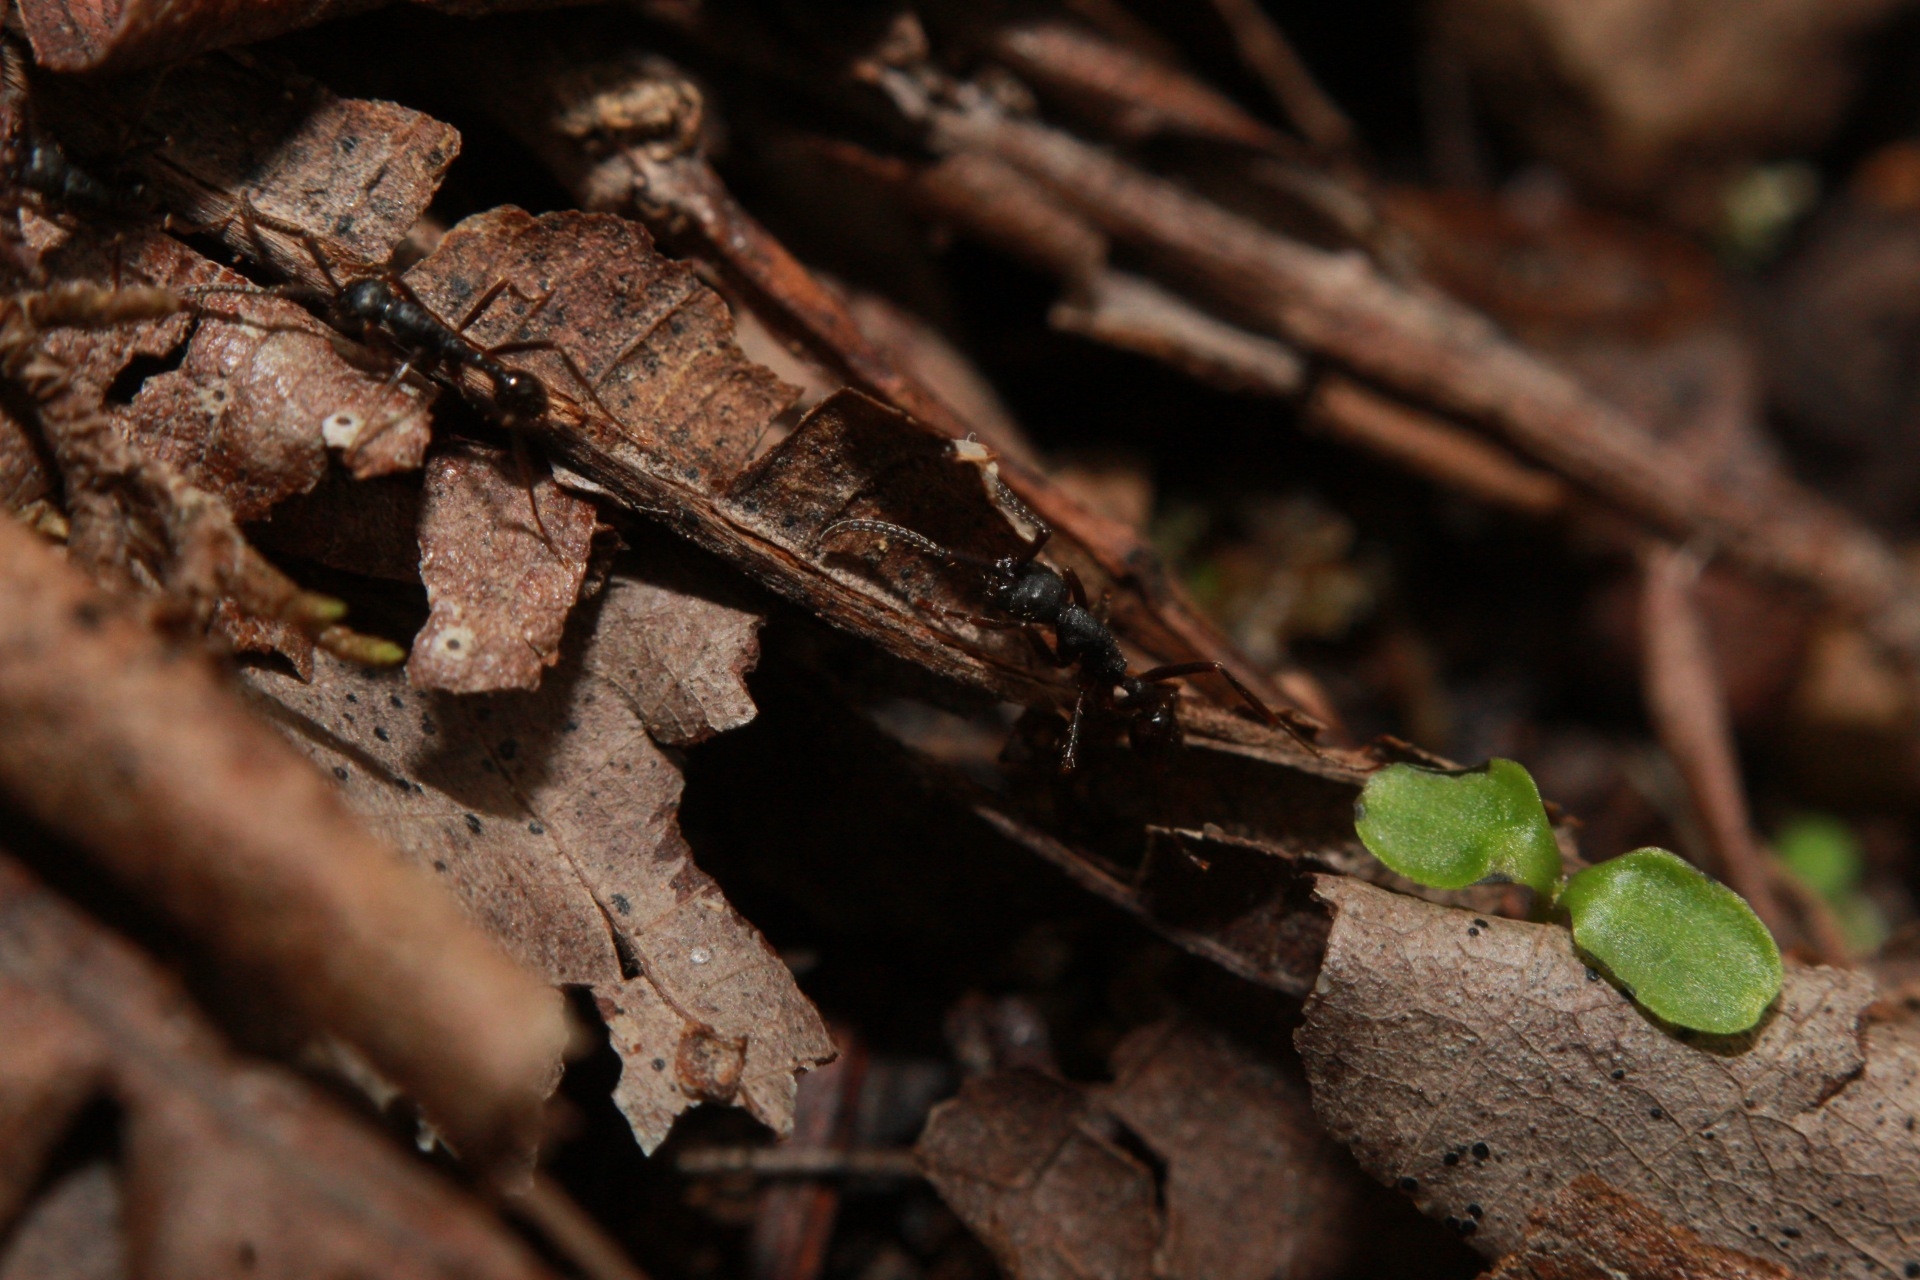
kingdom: Animalia
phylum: Arthropoda
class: Insecta
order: Hymenoptera
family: Formicidae
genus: Neivamyrmex
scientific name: Neivamyrmex cristatus
